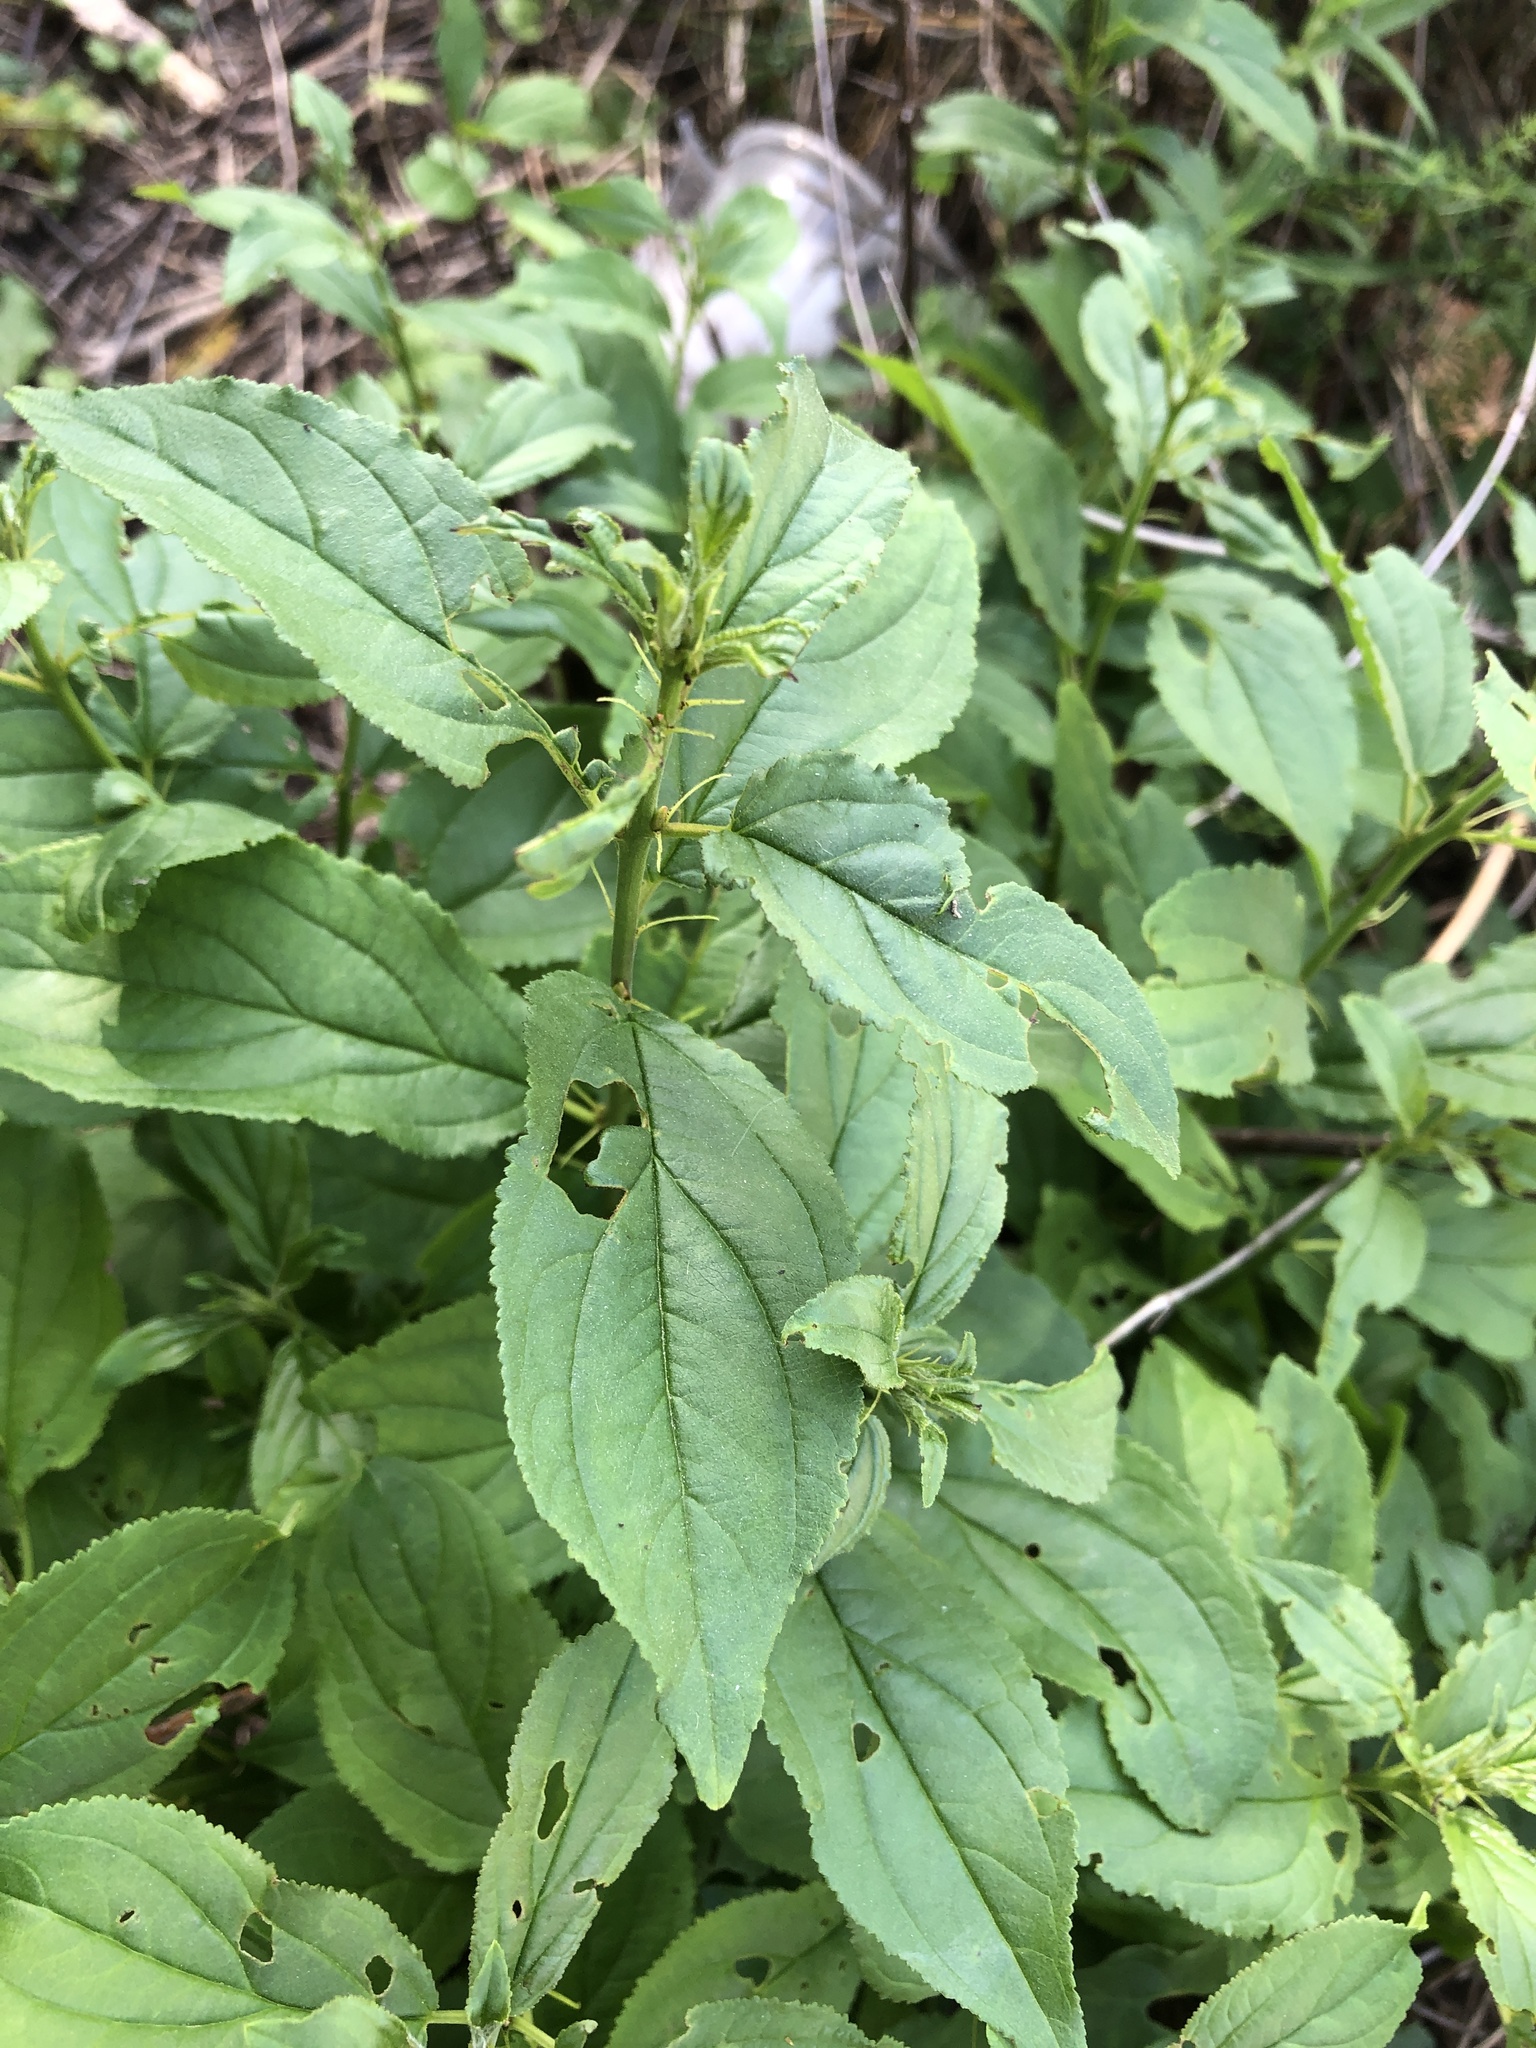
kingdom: Plantae
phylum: Tracheophyta
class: Magnoliopsida
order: Rosales
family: Rhamnaceae
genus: Rhamnus
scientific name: Rhamnus cathartica
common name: Common buckthorn
